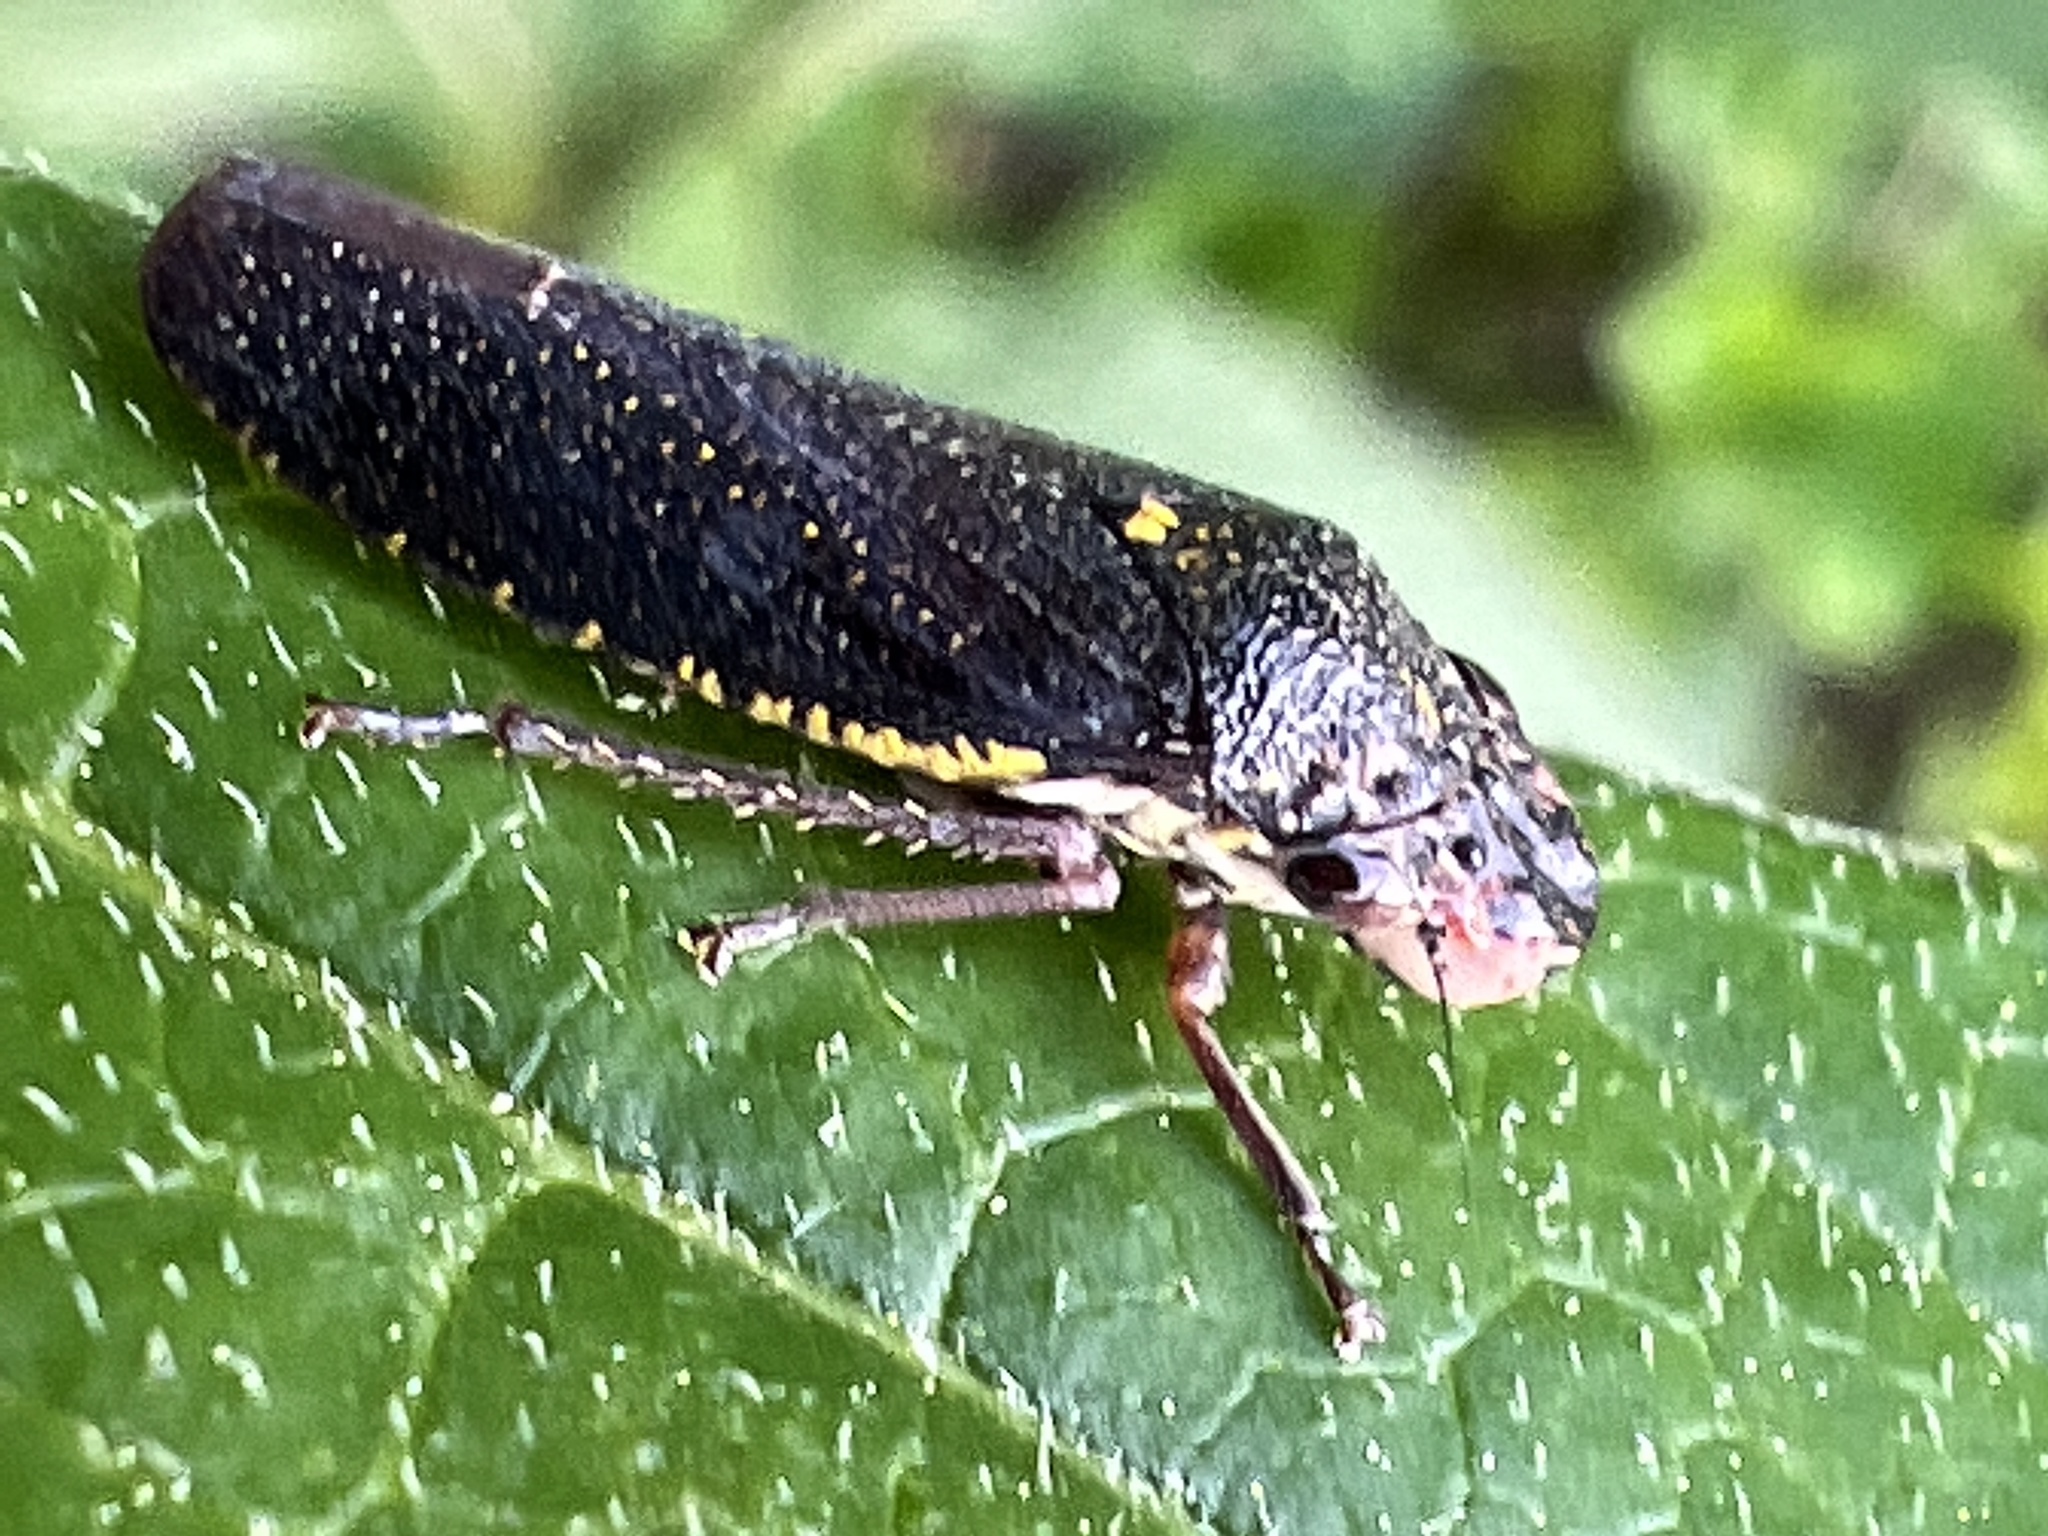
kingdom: Animalia
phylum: Arthropoda
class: Insecta
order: Hemiptera
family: Cicadellidae
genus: Paraulacizes
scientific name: Paraulacizes irrorata
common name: Speckled sharpshooter
